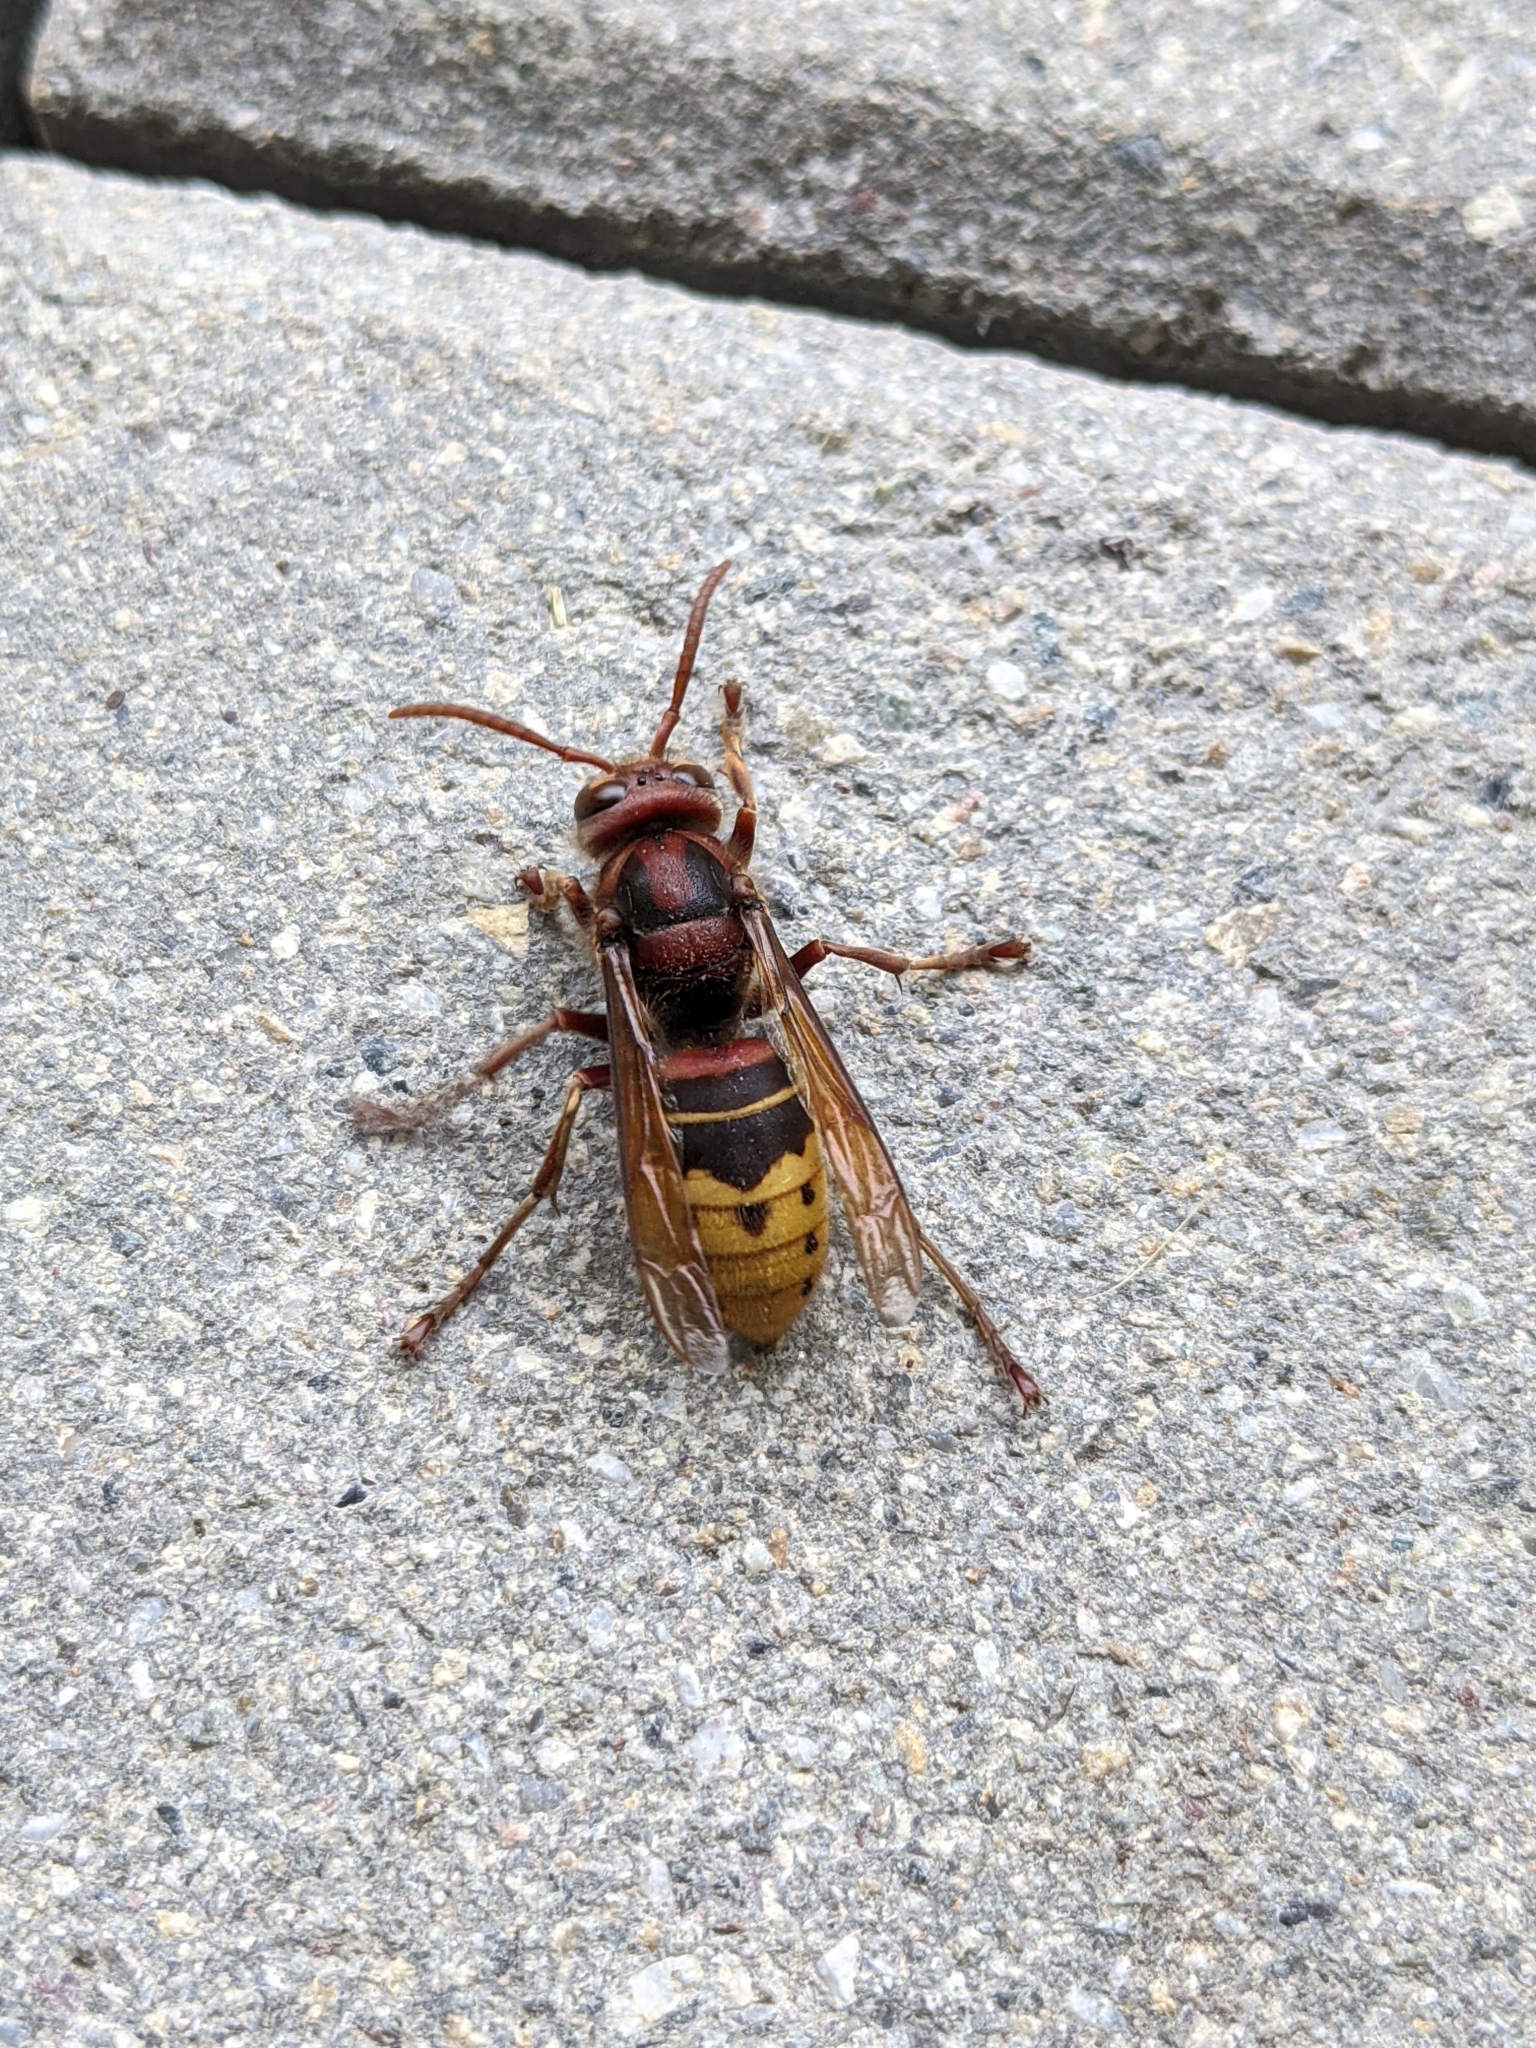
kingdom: Animalia
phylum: Arthropoda
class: Insecta
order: Hymenoptera
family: Vespidae
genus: Vespa
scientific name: Vespa crabro
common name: Hornet
